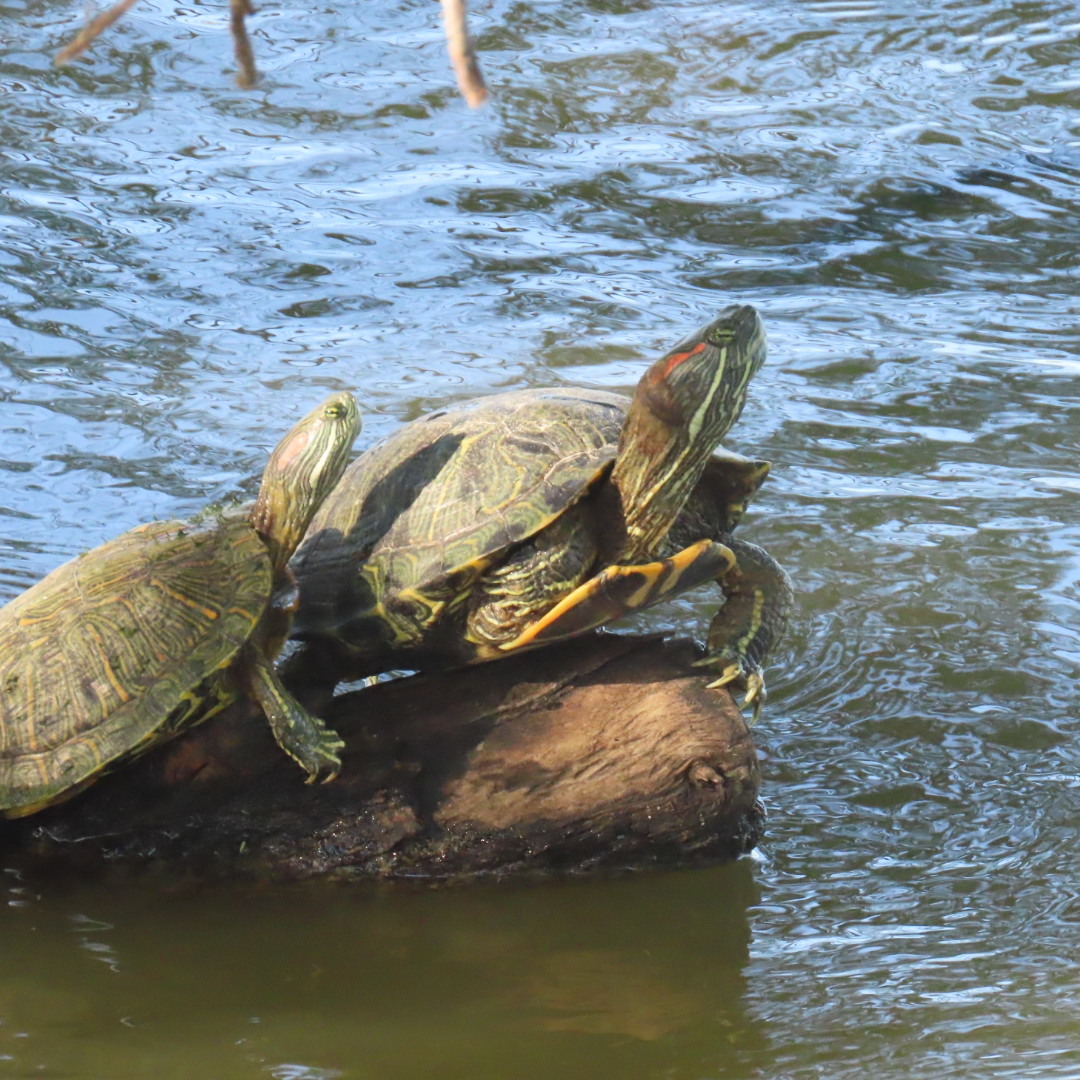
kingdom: Animalia
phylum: Chordata
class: Testudines
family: Emydidae
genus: Trachemys
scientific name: Trachemys scripta
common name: Slider
